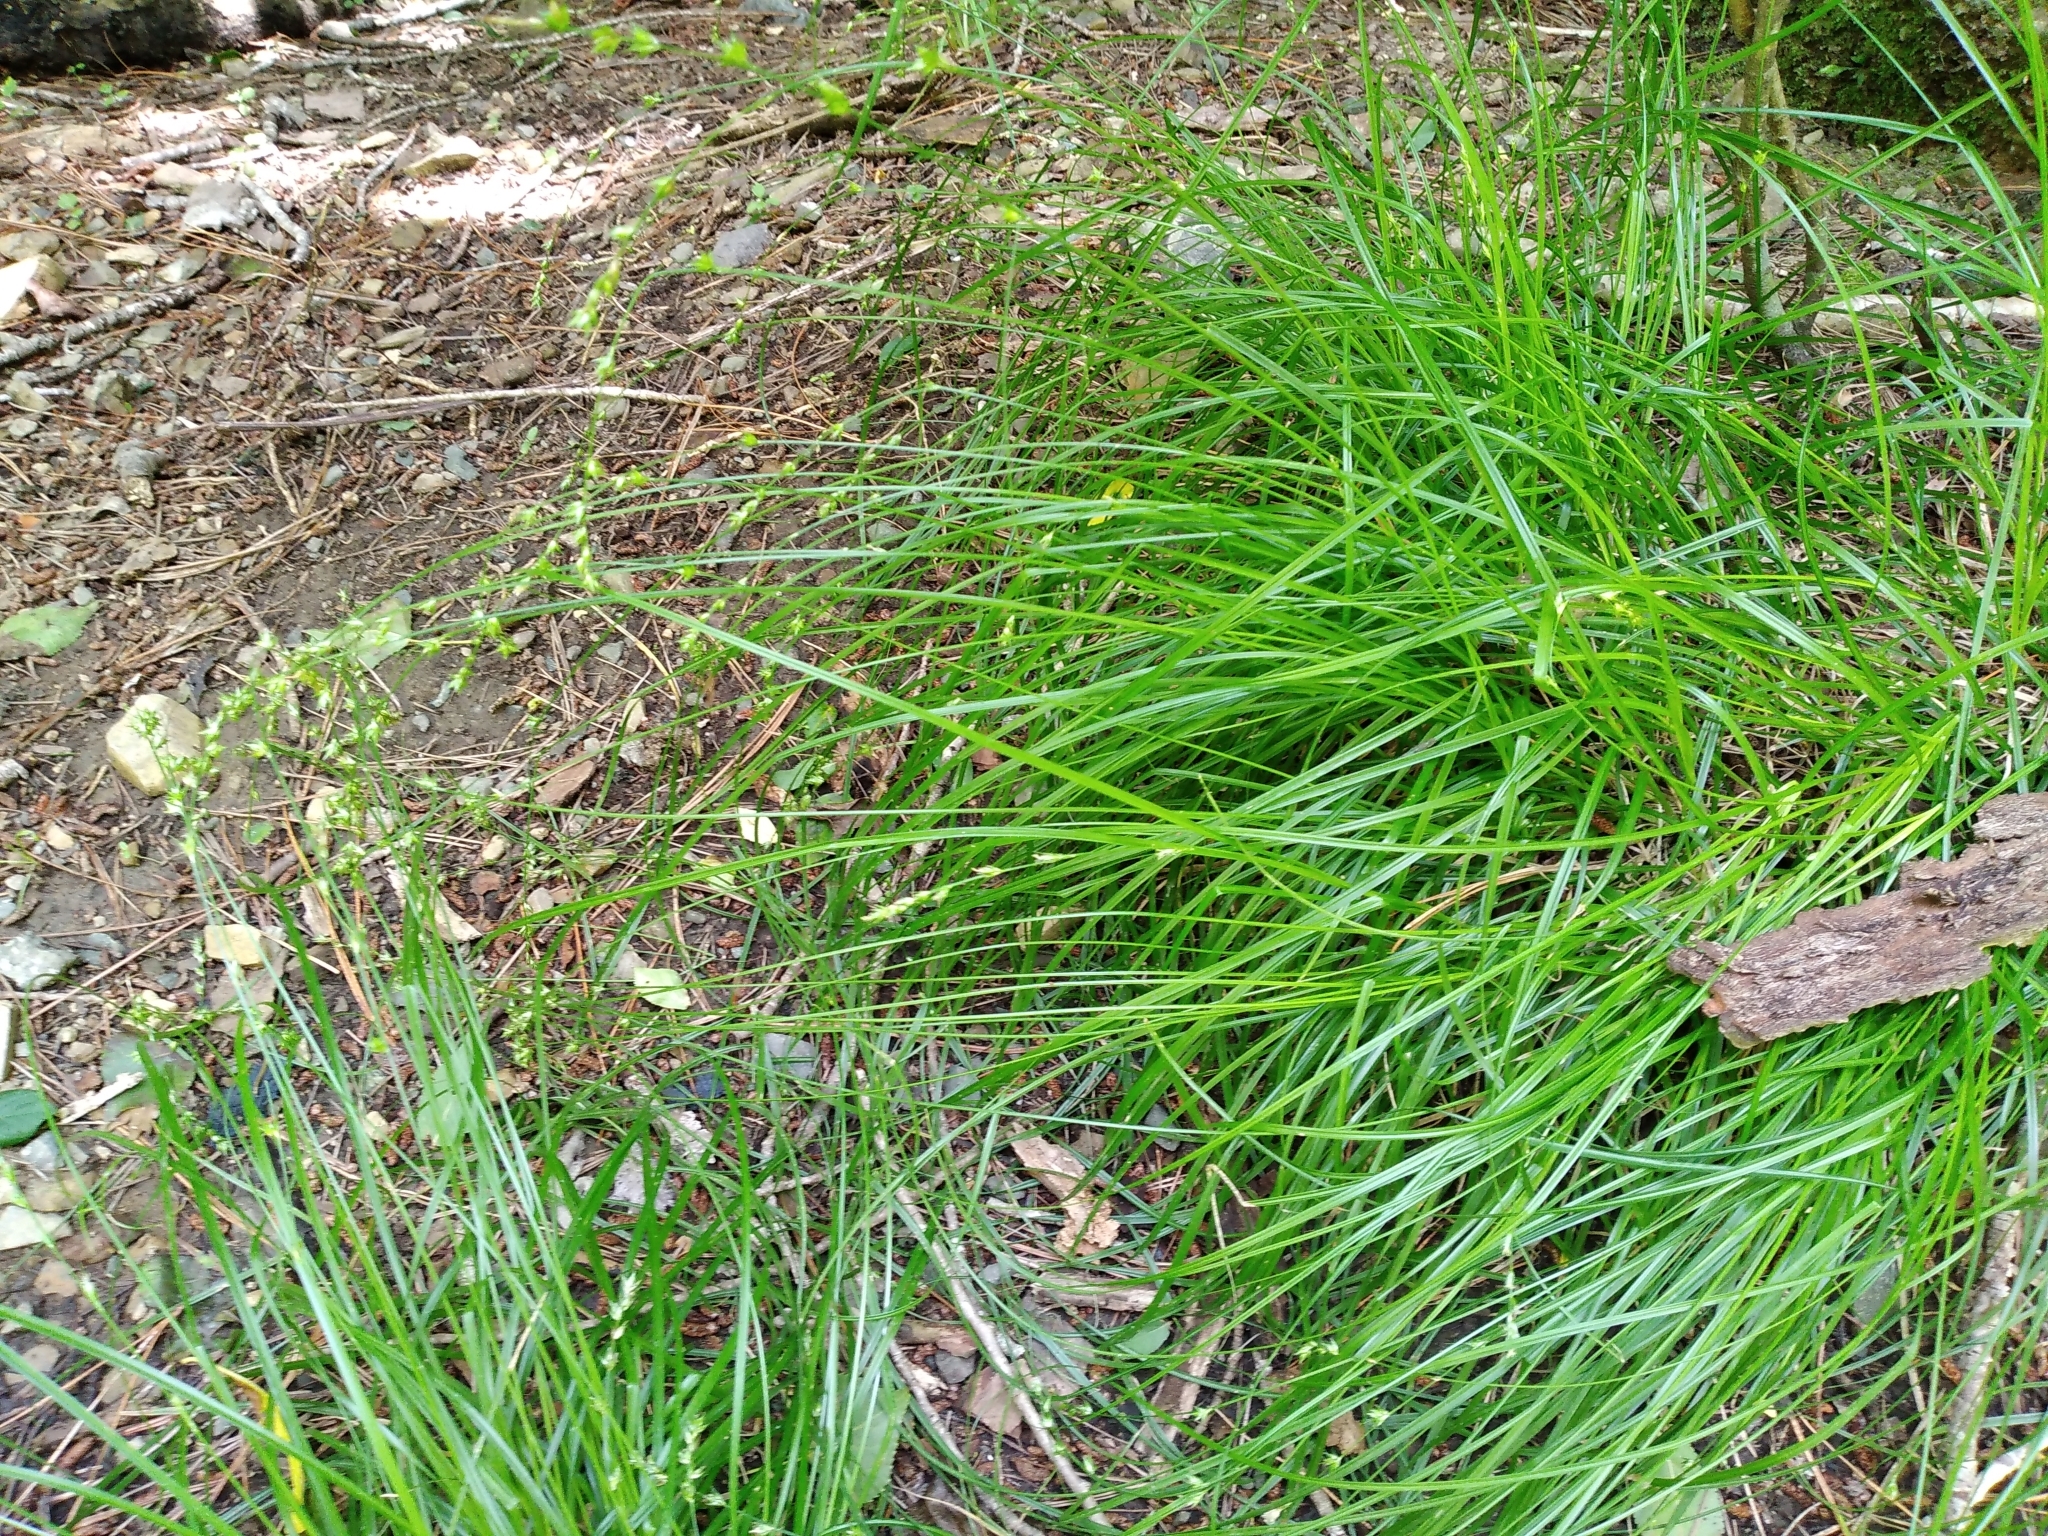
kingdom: Plantae
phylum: Tracheophyta
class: Liliopsida
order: Poales
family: Cyperaceae
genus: Carex
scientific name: Carex divulsa
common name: Grassland sedge
